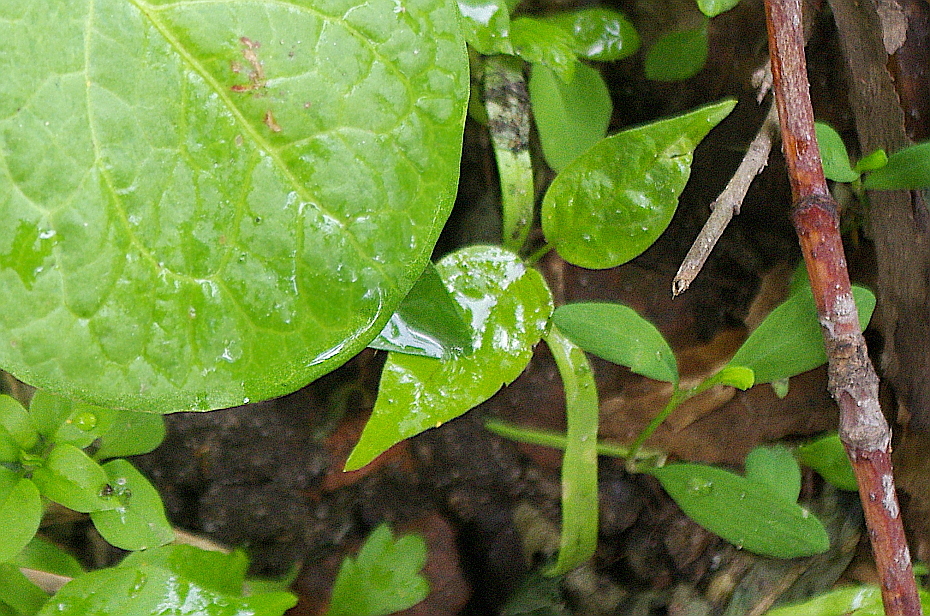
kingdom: Plantae
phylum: Tracheophyta
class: Magnoliopsida
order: Sapindales
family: Sapindaceae
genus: Acer
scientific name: Acer negundo
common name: Ashleaf maple
